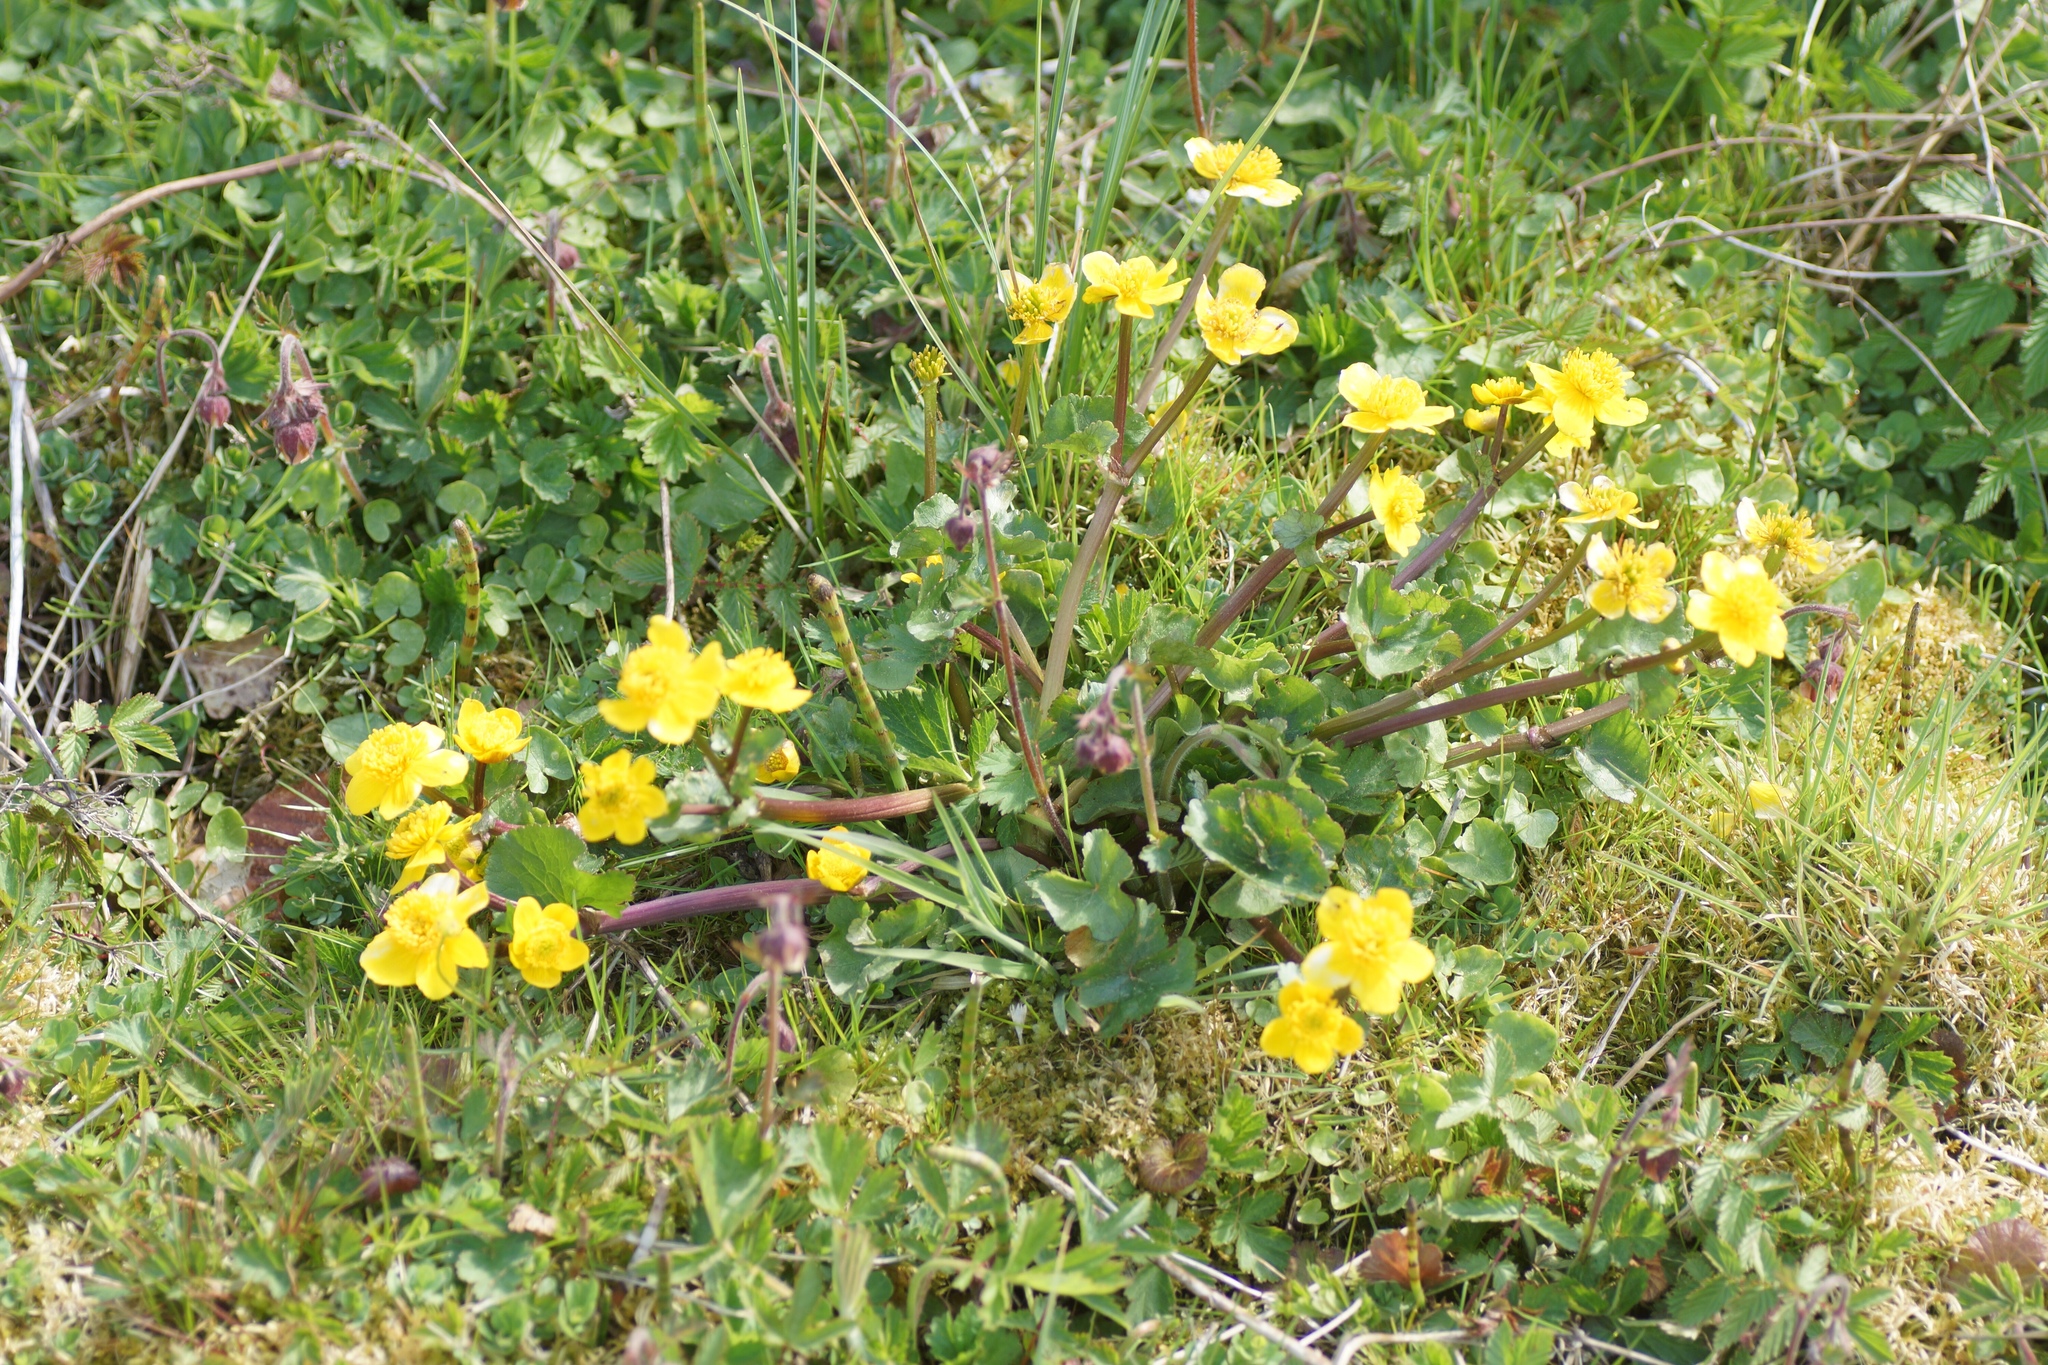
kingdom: Plantae
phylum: Tracheophyta
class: Magnoliopsida
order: Ranunculales
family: Ranunculaceae
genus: Caltha
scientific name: Caltha palustris
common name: Marsh marigold
